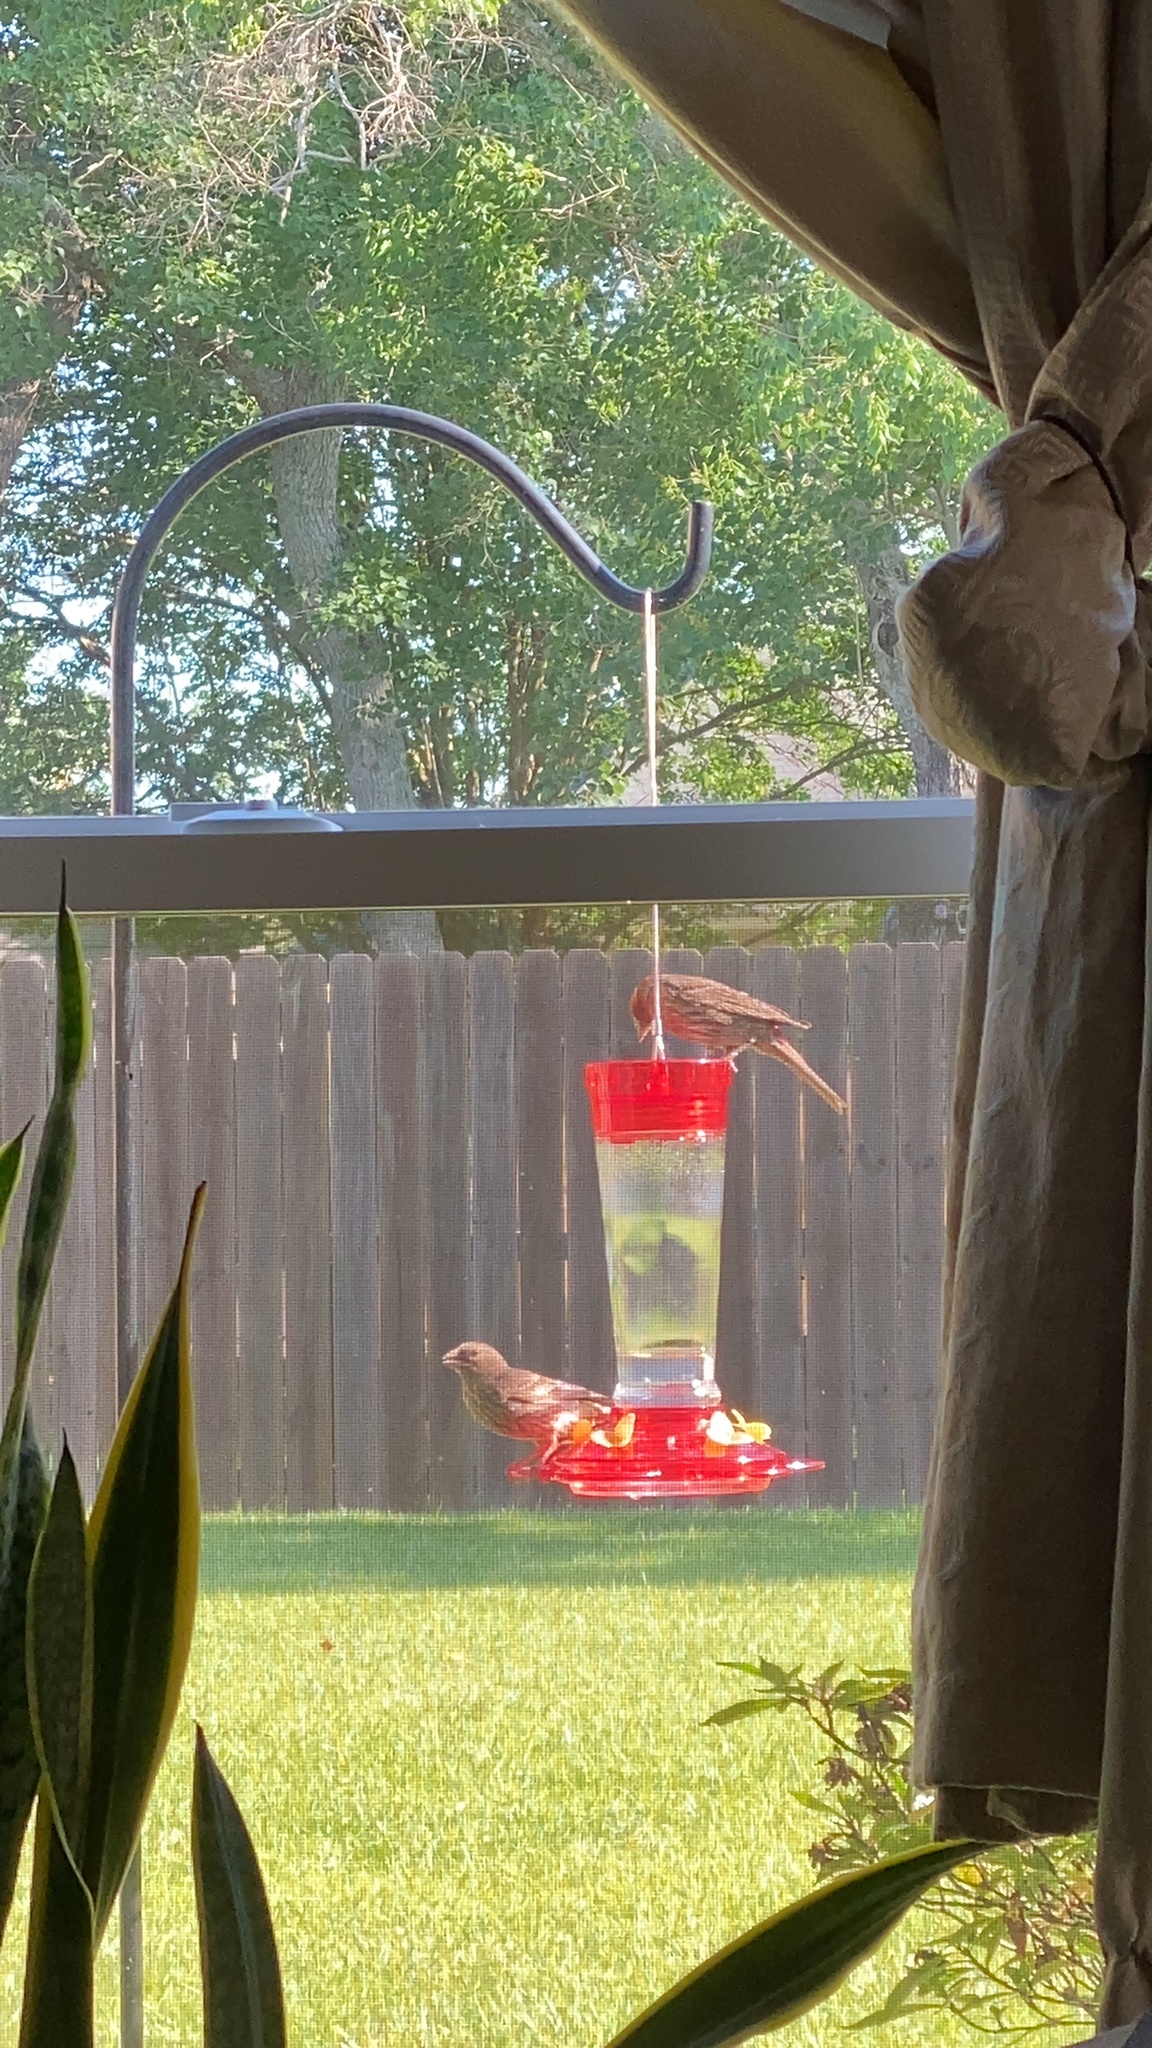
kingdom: Animalia
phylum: Chordata
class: Aves
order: Passeriformes
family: Fringillidae
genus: Haemorhous
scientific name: Haemorhous mexicanus
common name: House finch
